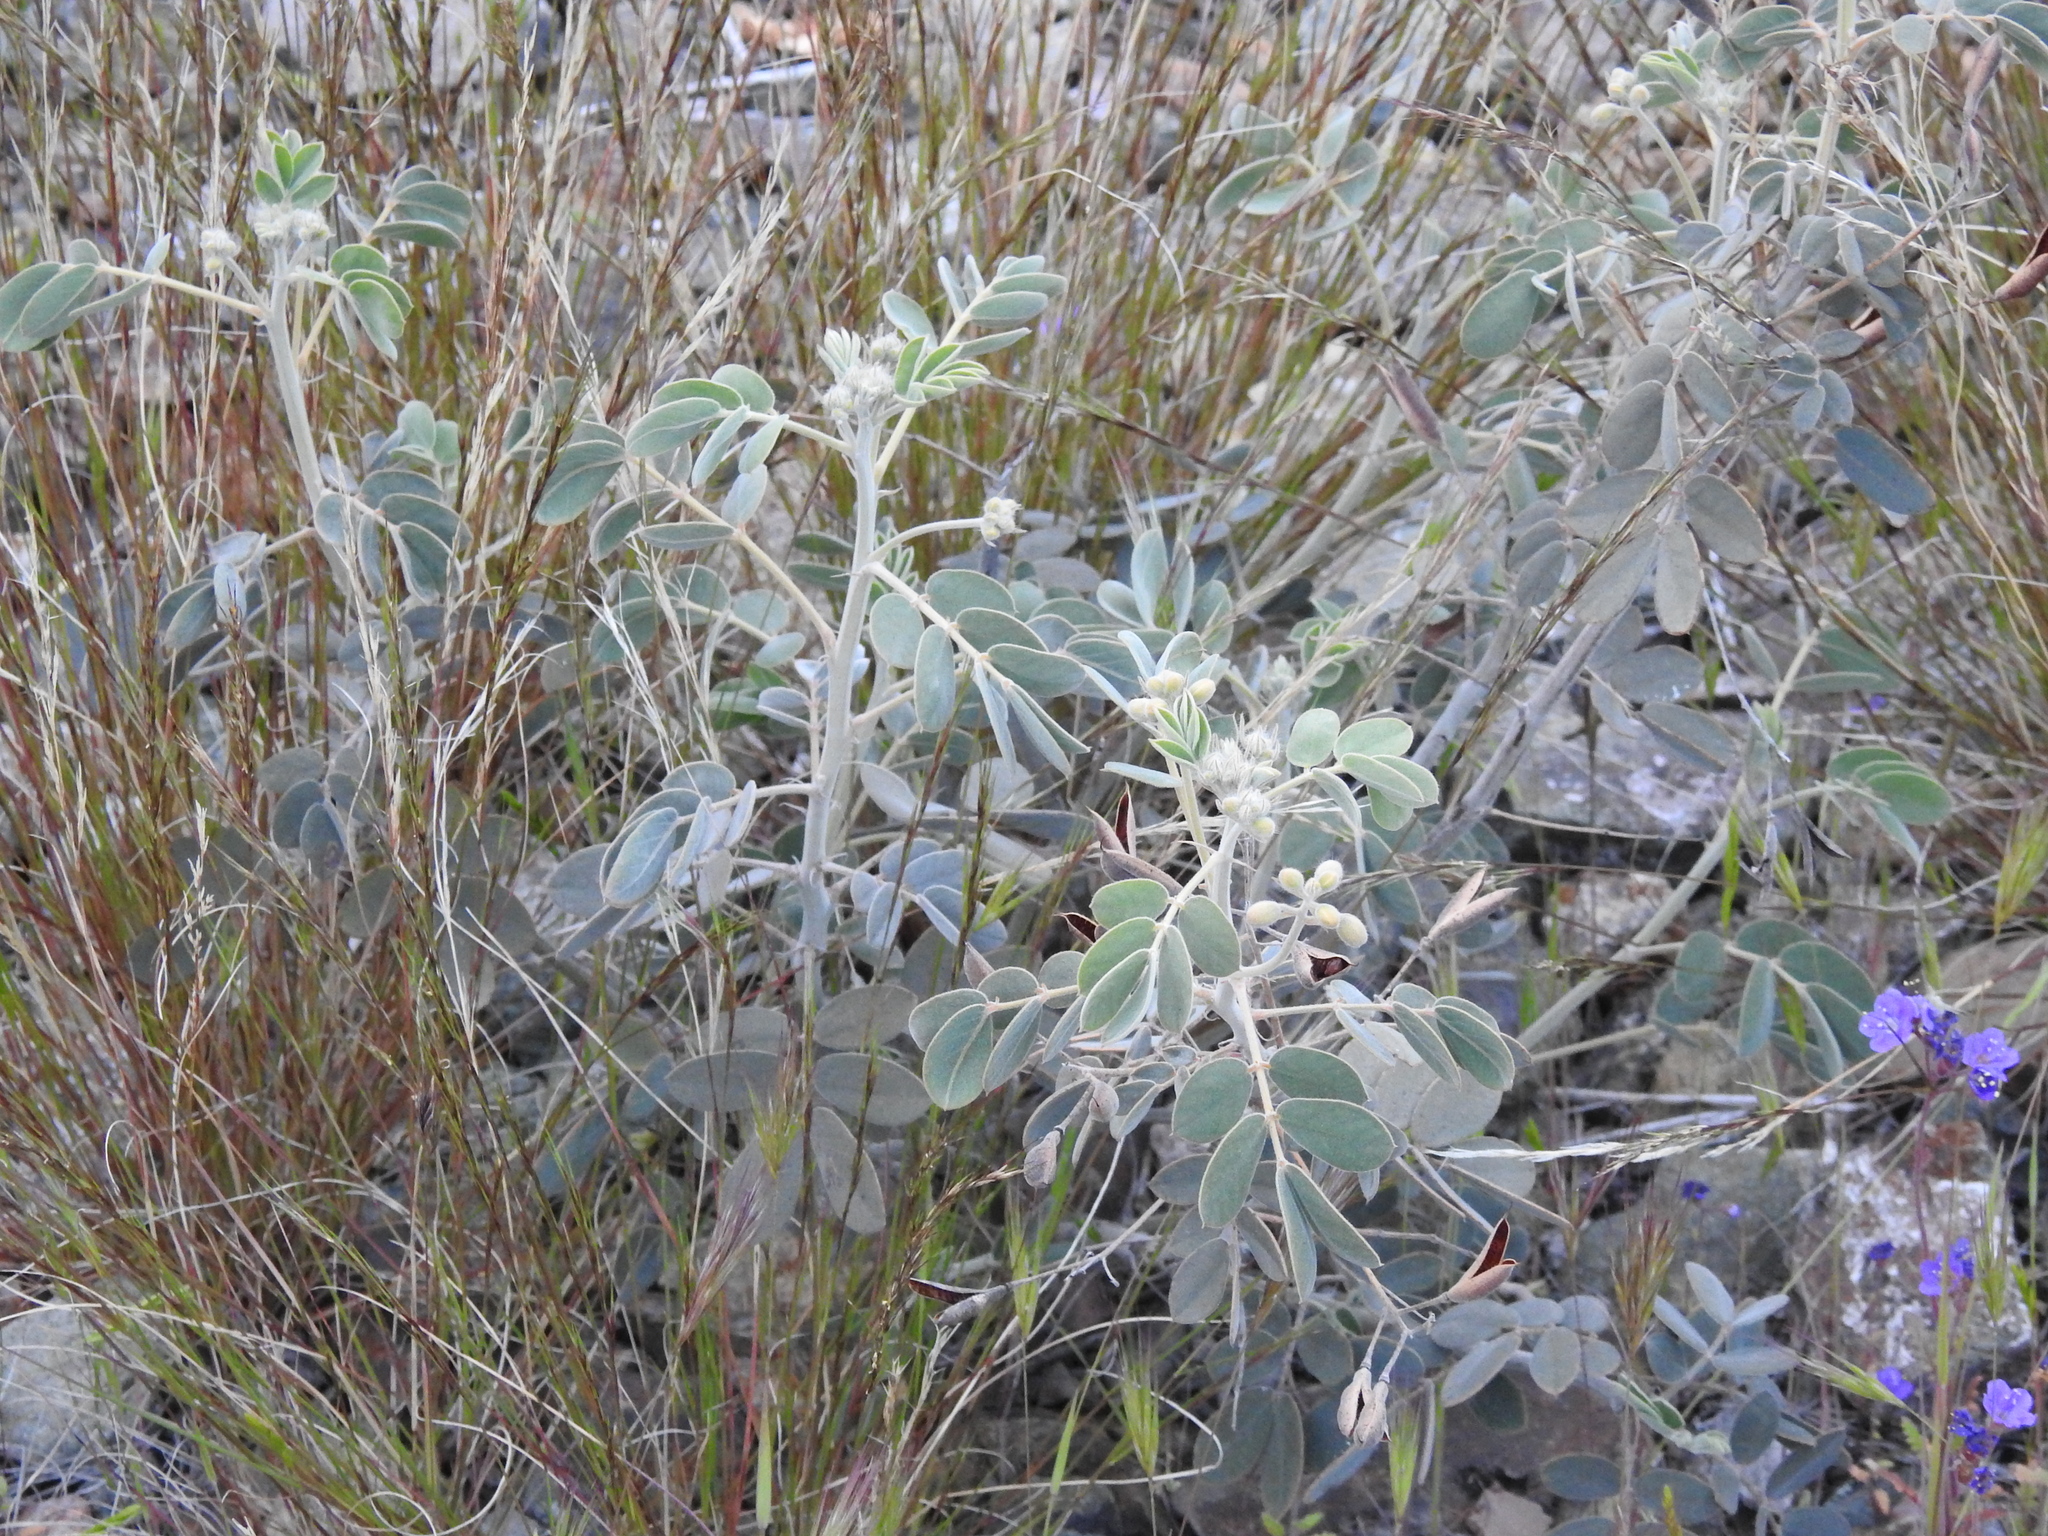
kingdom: Plantae
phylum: Tracheophyta
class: Magnoliopsida
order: Fabales
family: Fabaceae
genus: Senna
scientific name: Senna covesii
